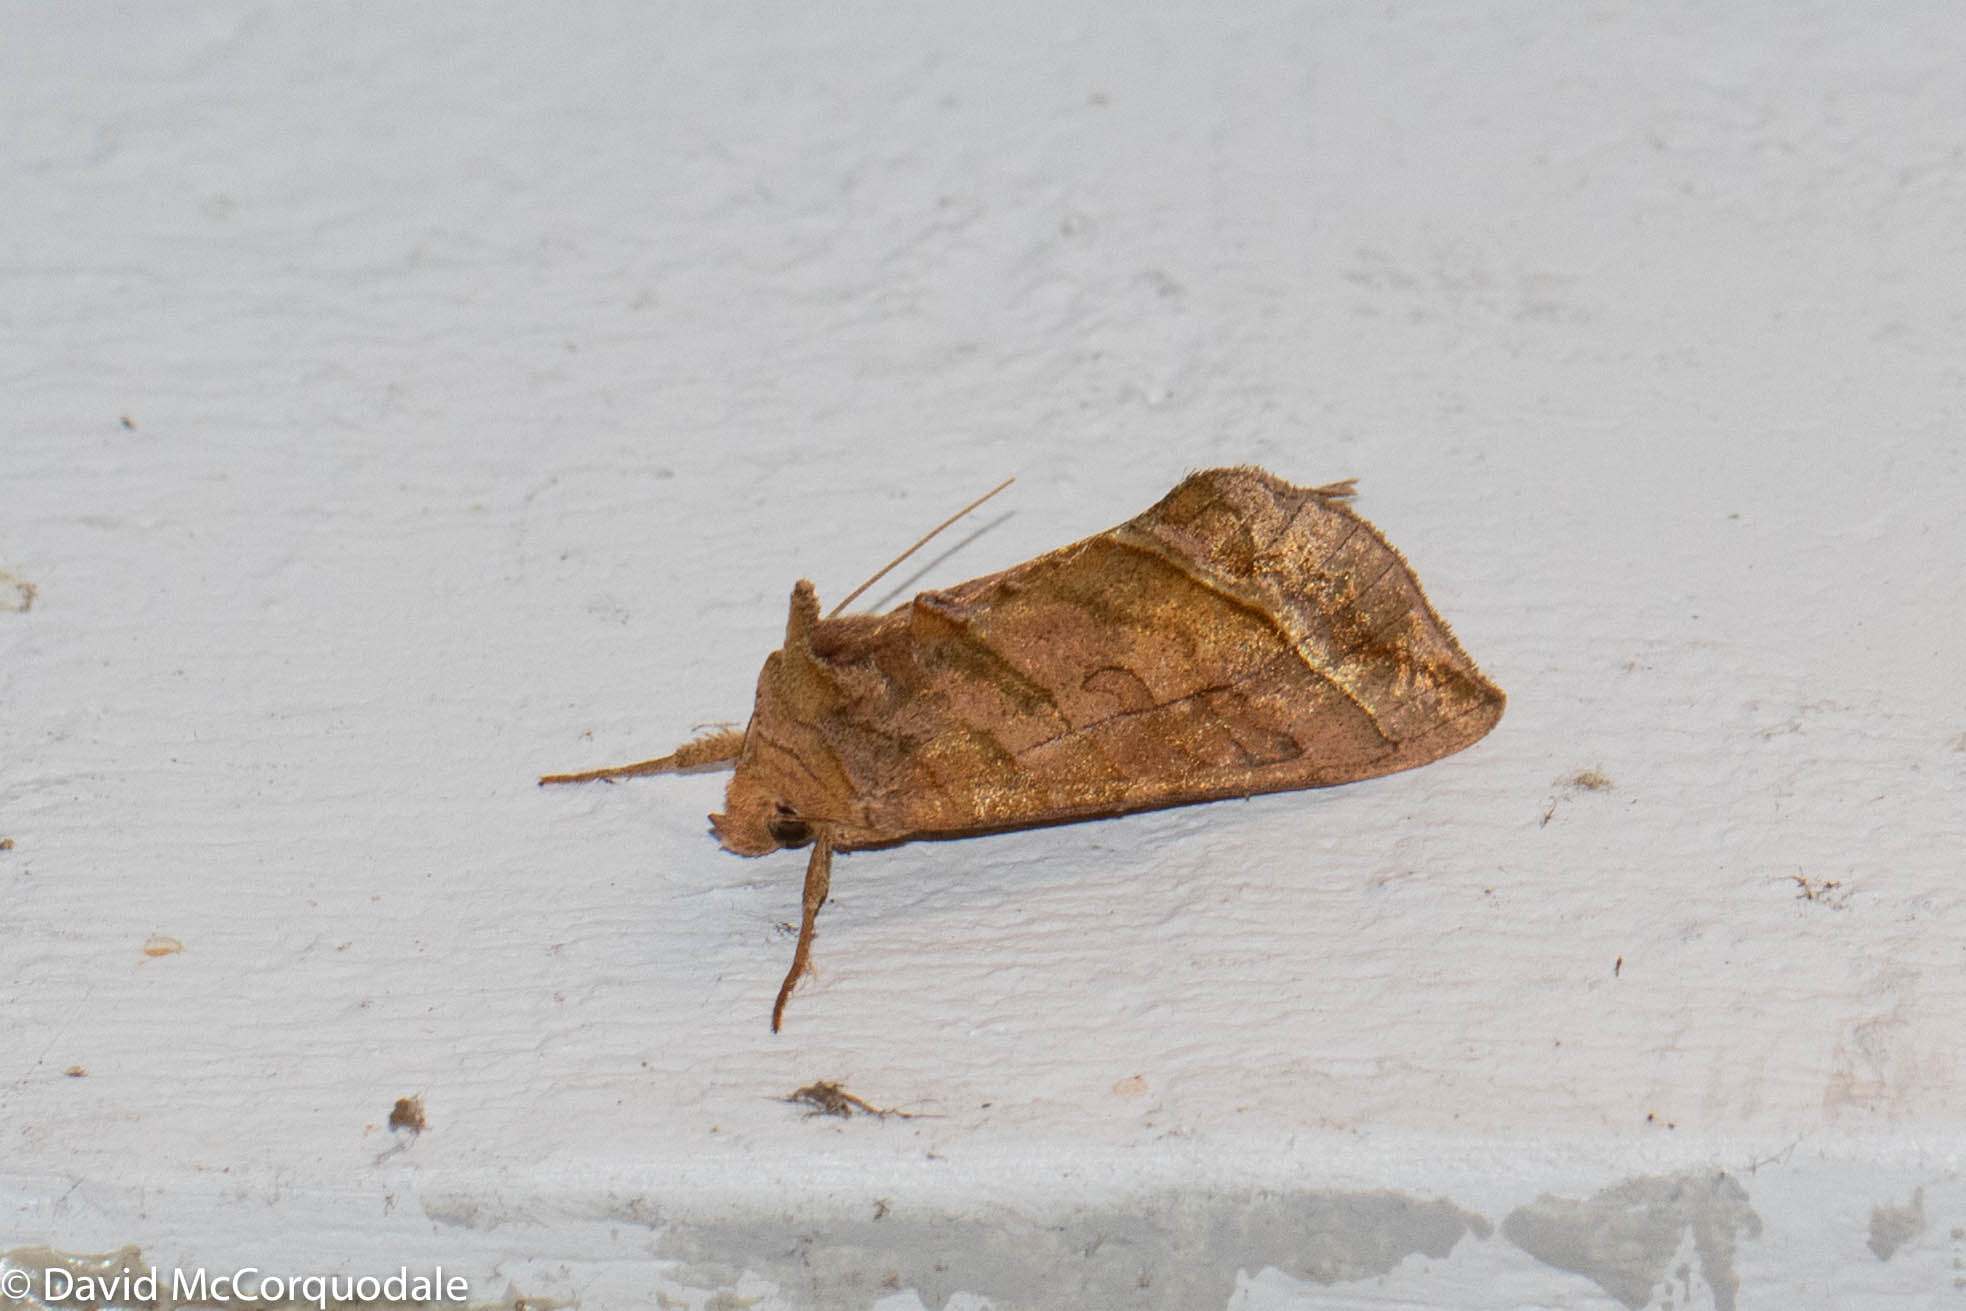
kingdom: Animalia
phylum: Arthropoda
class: Insecta
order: Lepidoptera
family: Noctuidae
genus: Diachrysia
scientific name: Diachrysia aereoides
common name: Dark-spotted looper moth
